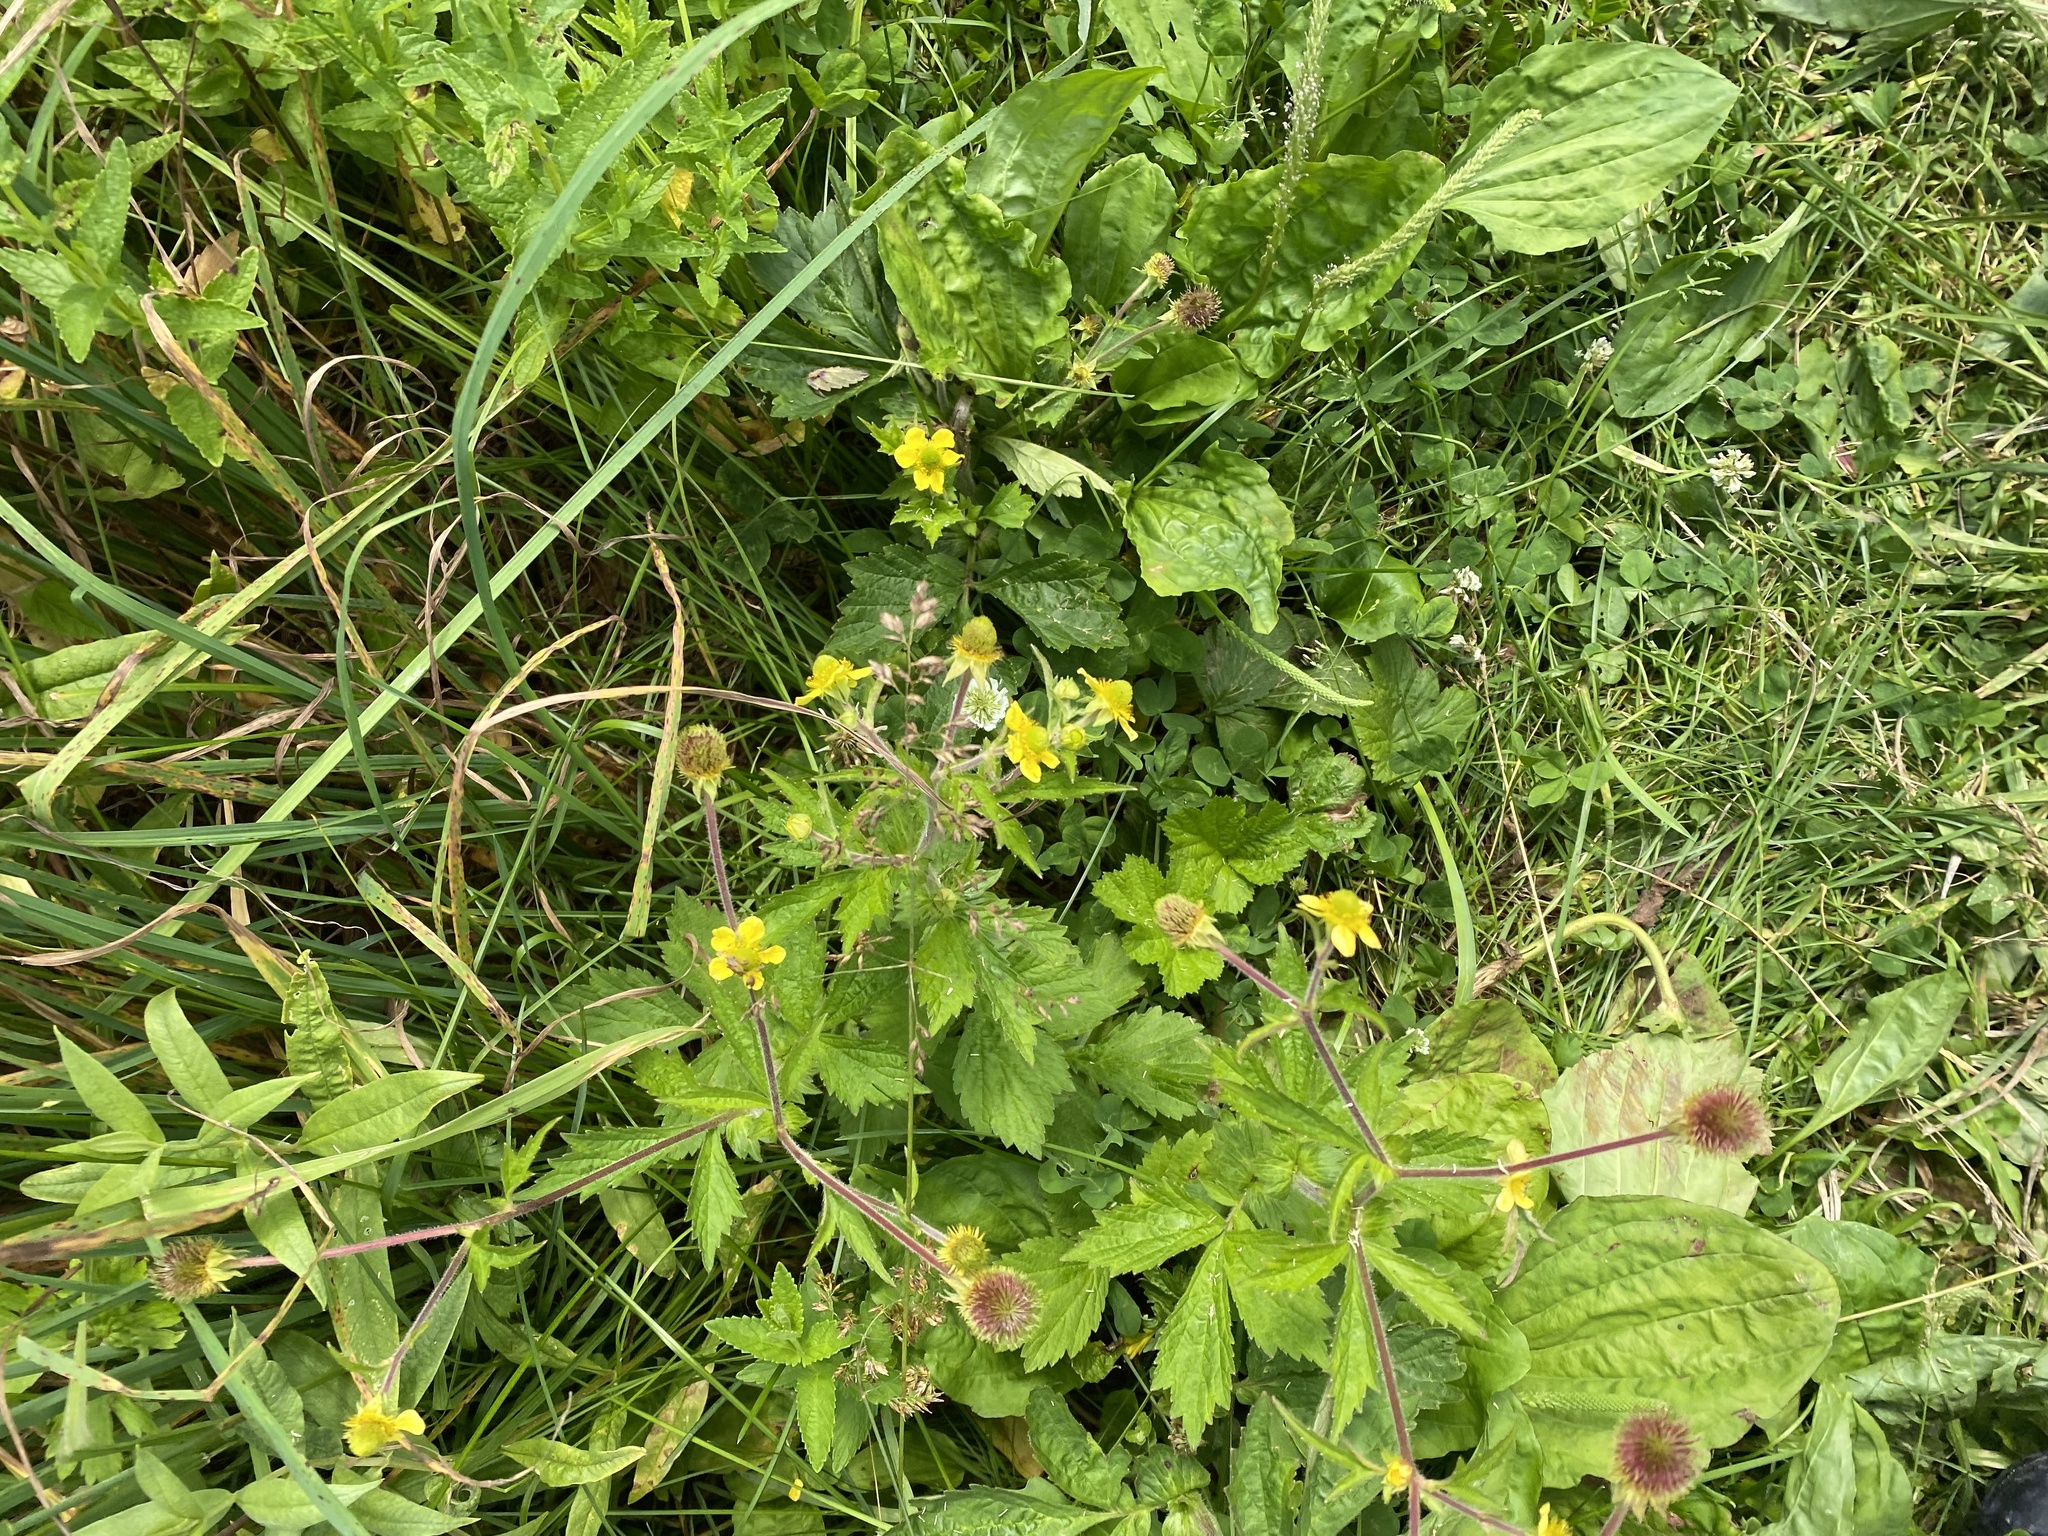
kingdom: Plantae
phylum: Tracheophyta
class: Magnoliopsida
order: Rosales
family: Rosaceae
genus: Geum
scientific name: Geum aleppicum
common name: Yellow avens
